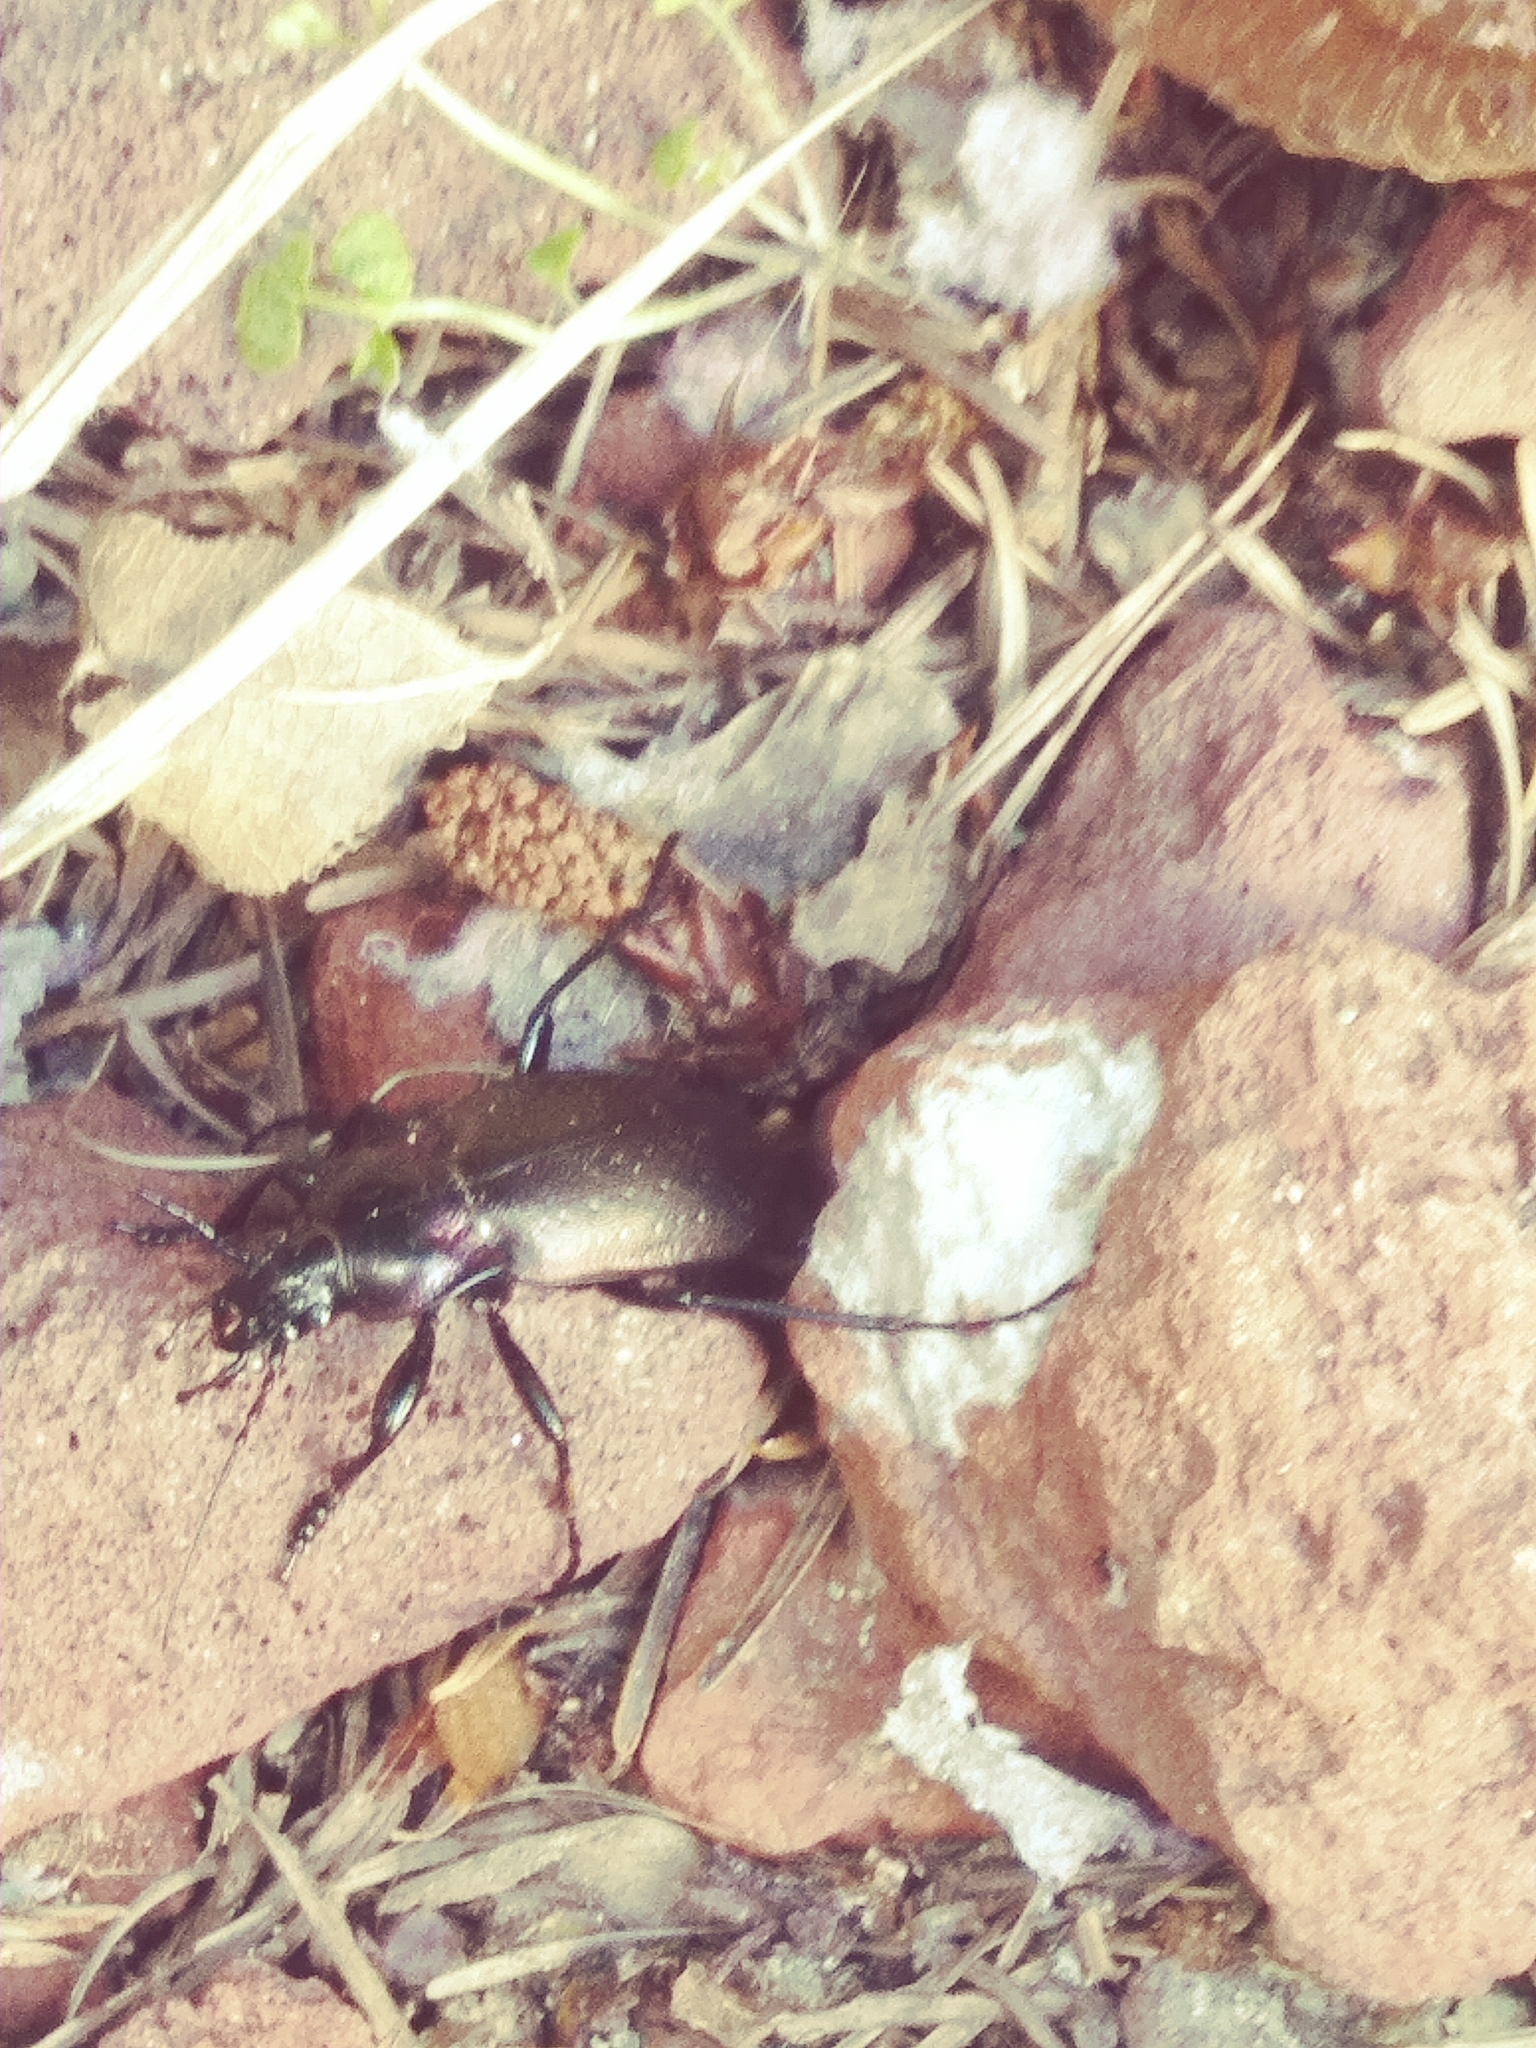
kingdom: Animalia
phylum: Arthropoda
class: Insecta
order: Coleoptera
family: Carabidae
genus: Carabus
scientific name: Carabus nemoralis
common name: European ground beetle
